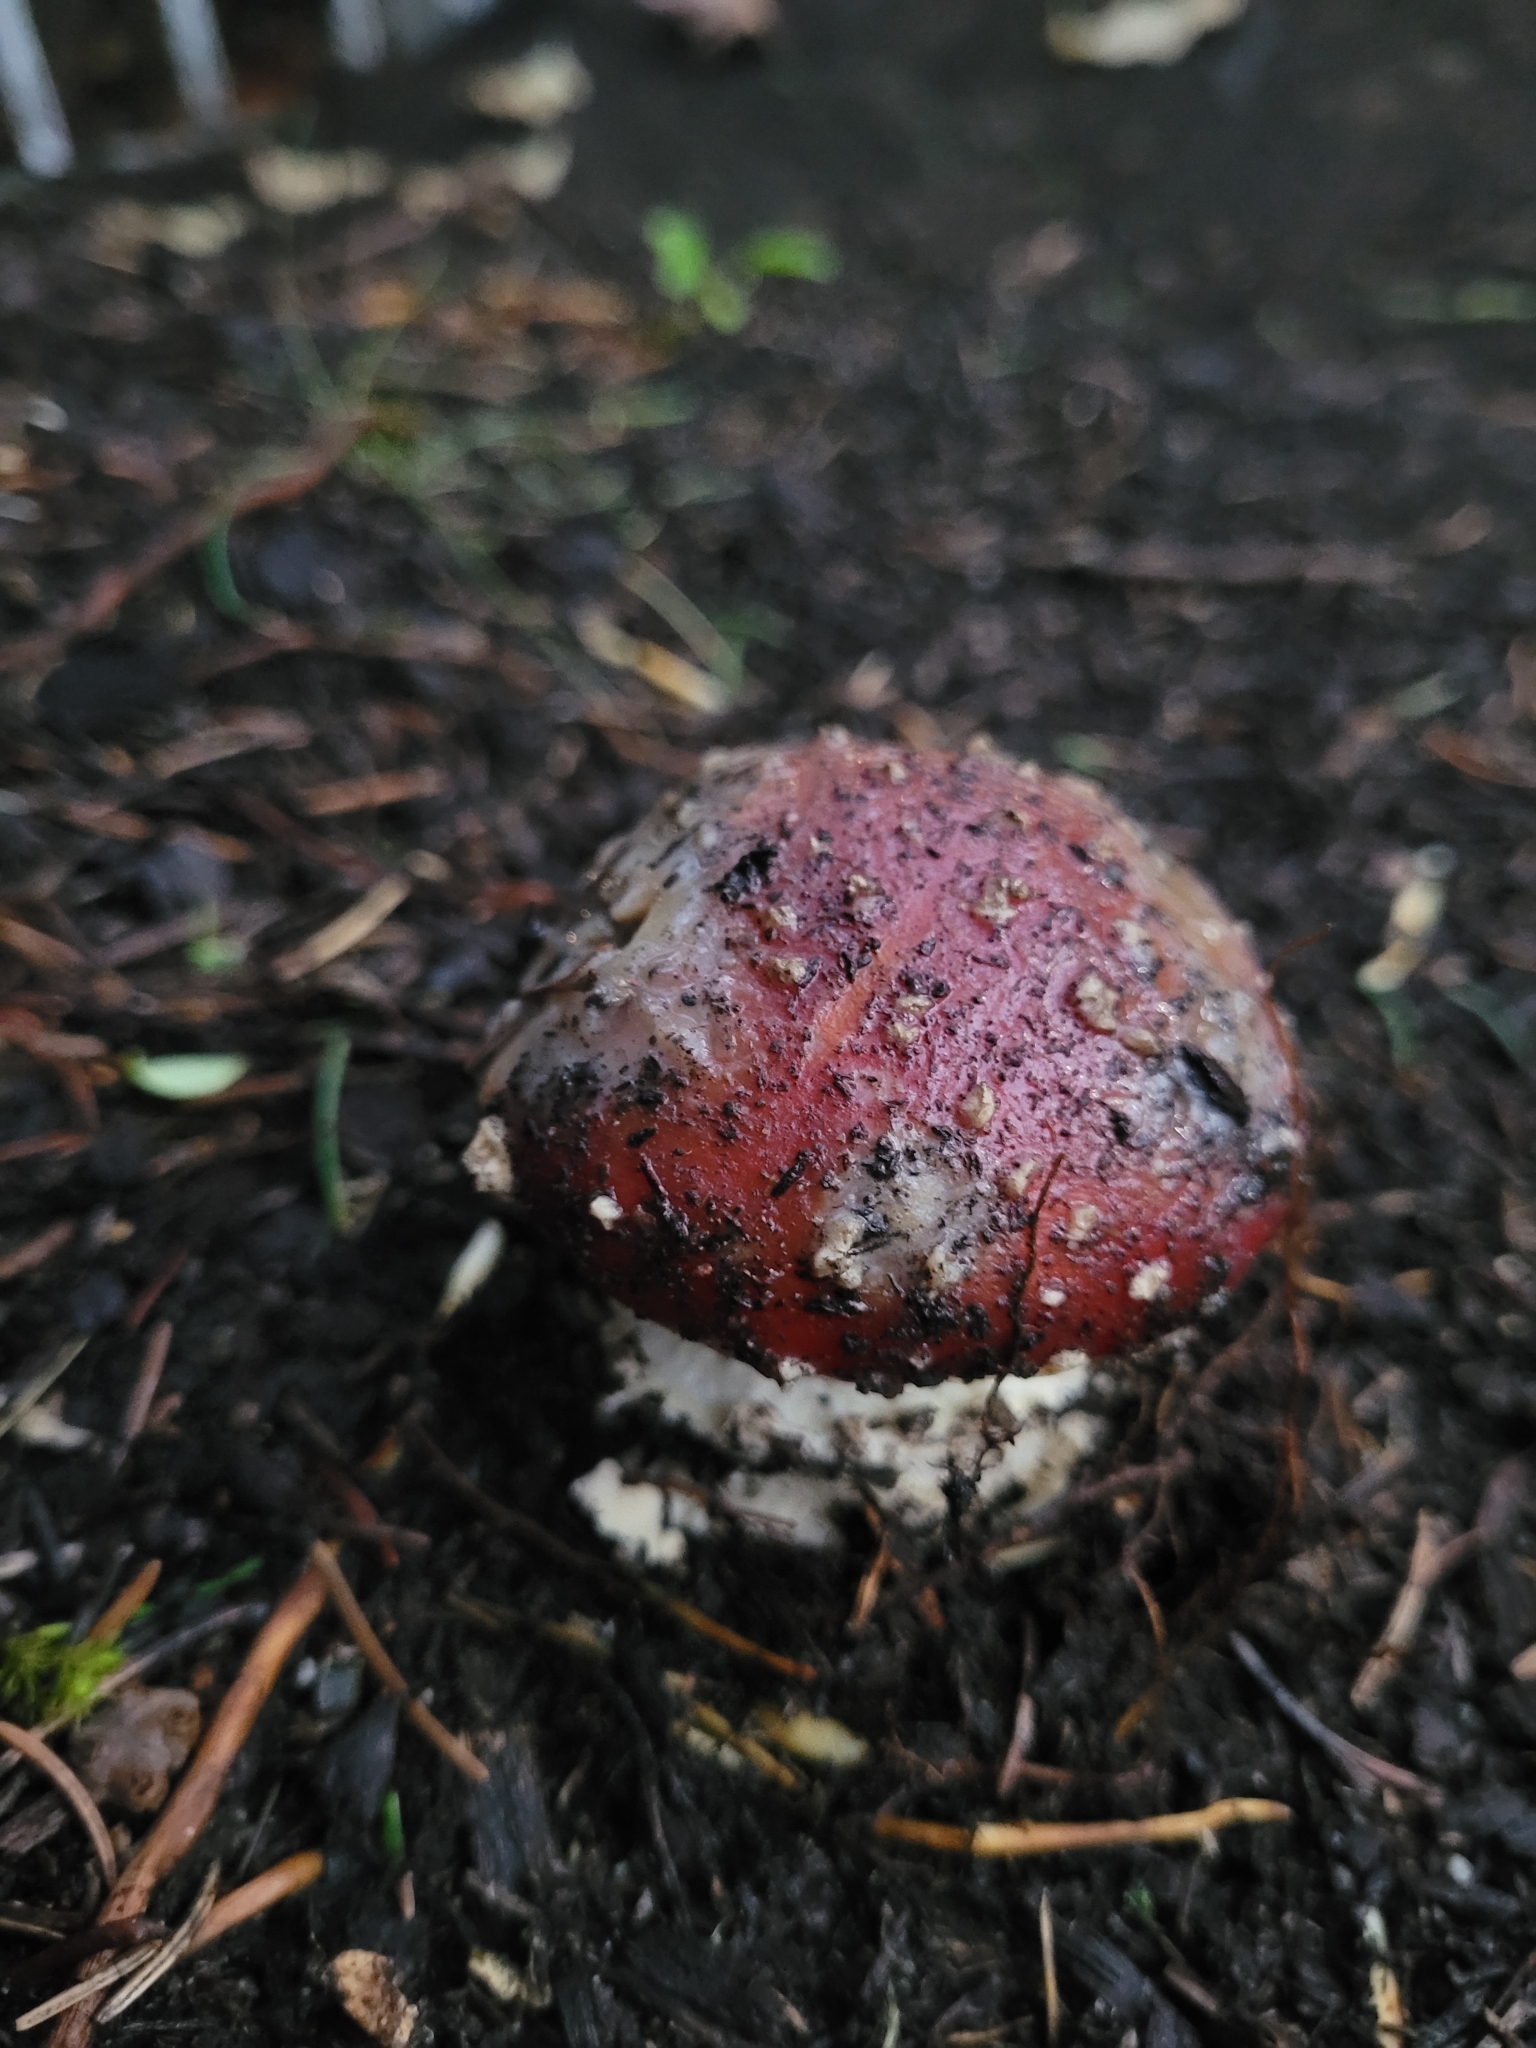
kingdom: Fungi
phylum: Basidiomycota
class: Agaricomycetes
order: Agaricales
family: Amanitaceae
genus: Amanita
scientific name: Amanita muscaria
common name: Fly agaric
